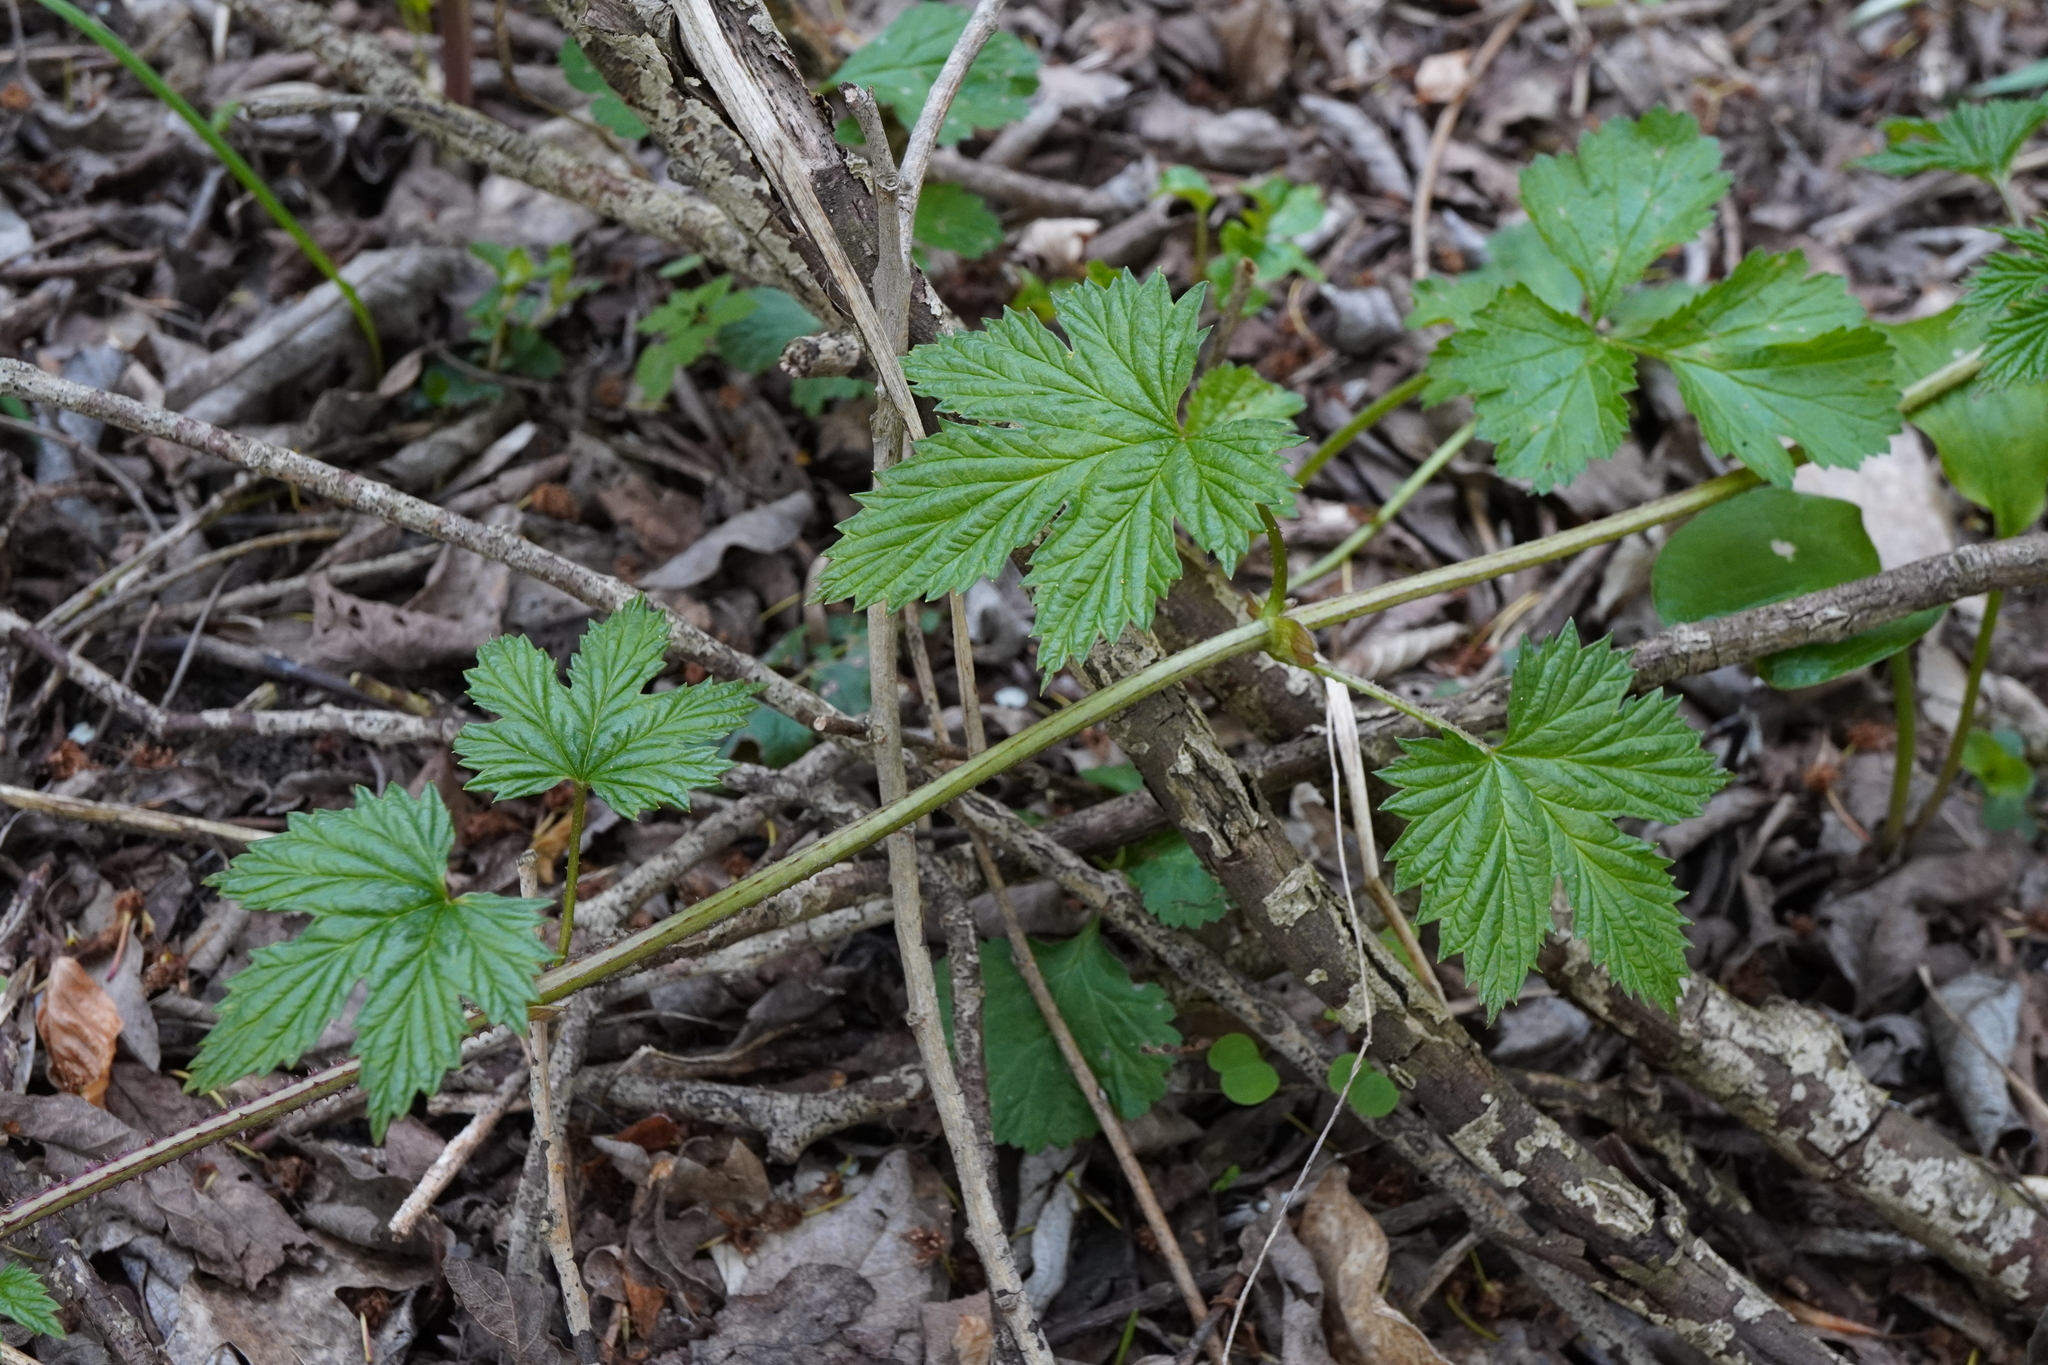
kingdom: Plantae
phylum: Tracheophyta
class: Magnoliopsida
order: Rosales
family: Cannabaceae
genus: Humulus
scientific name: Humulus lupulus
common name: Hop
